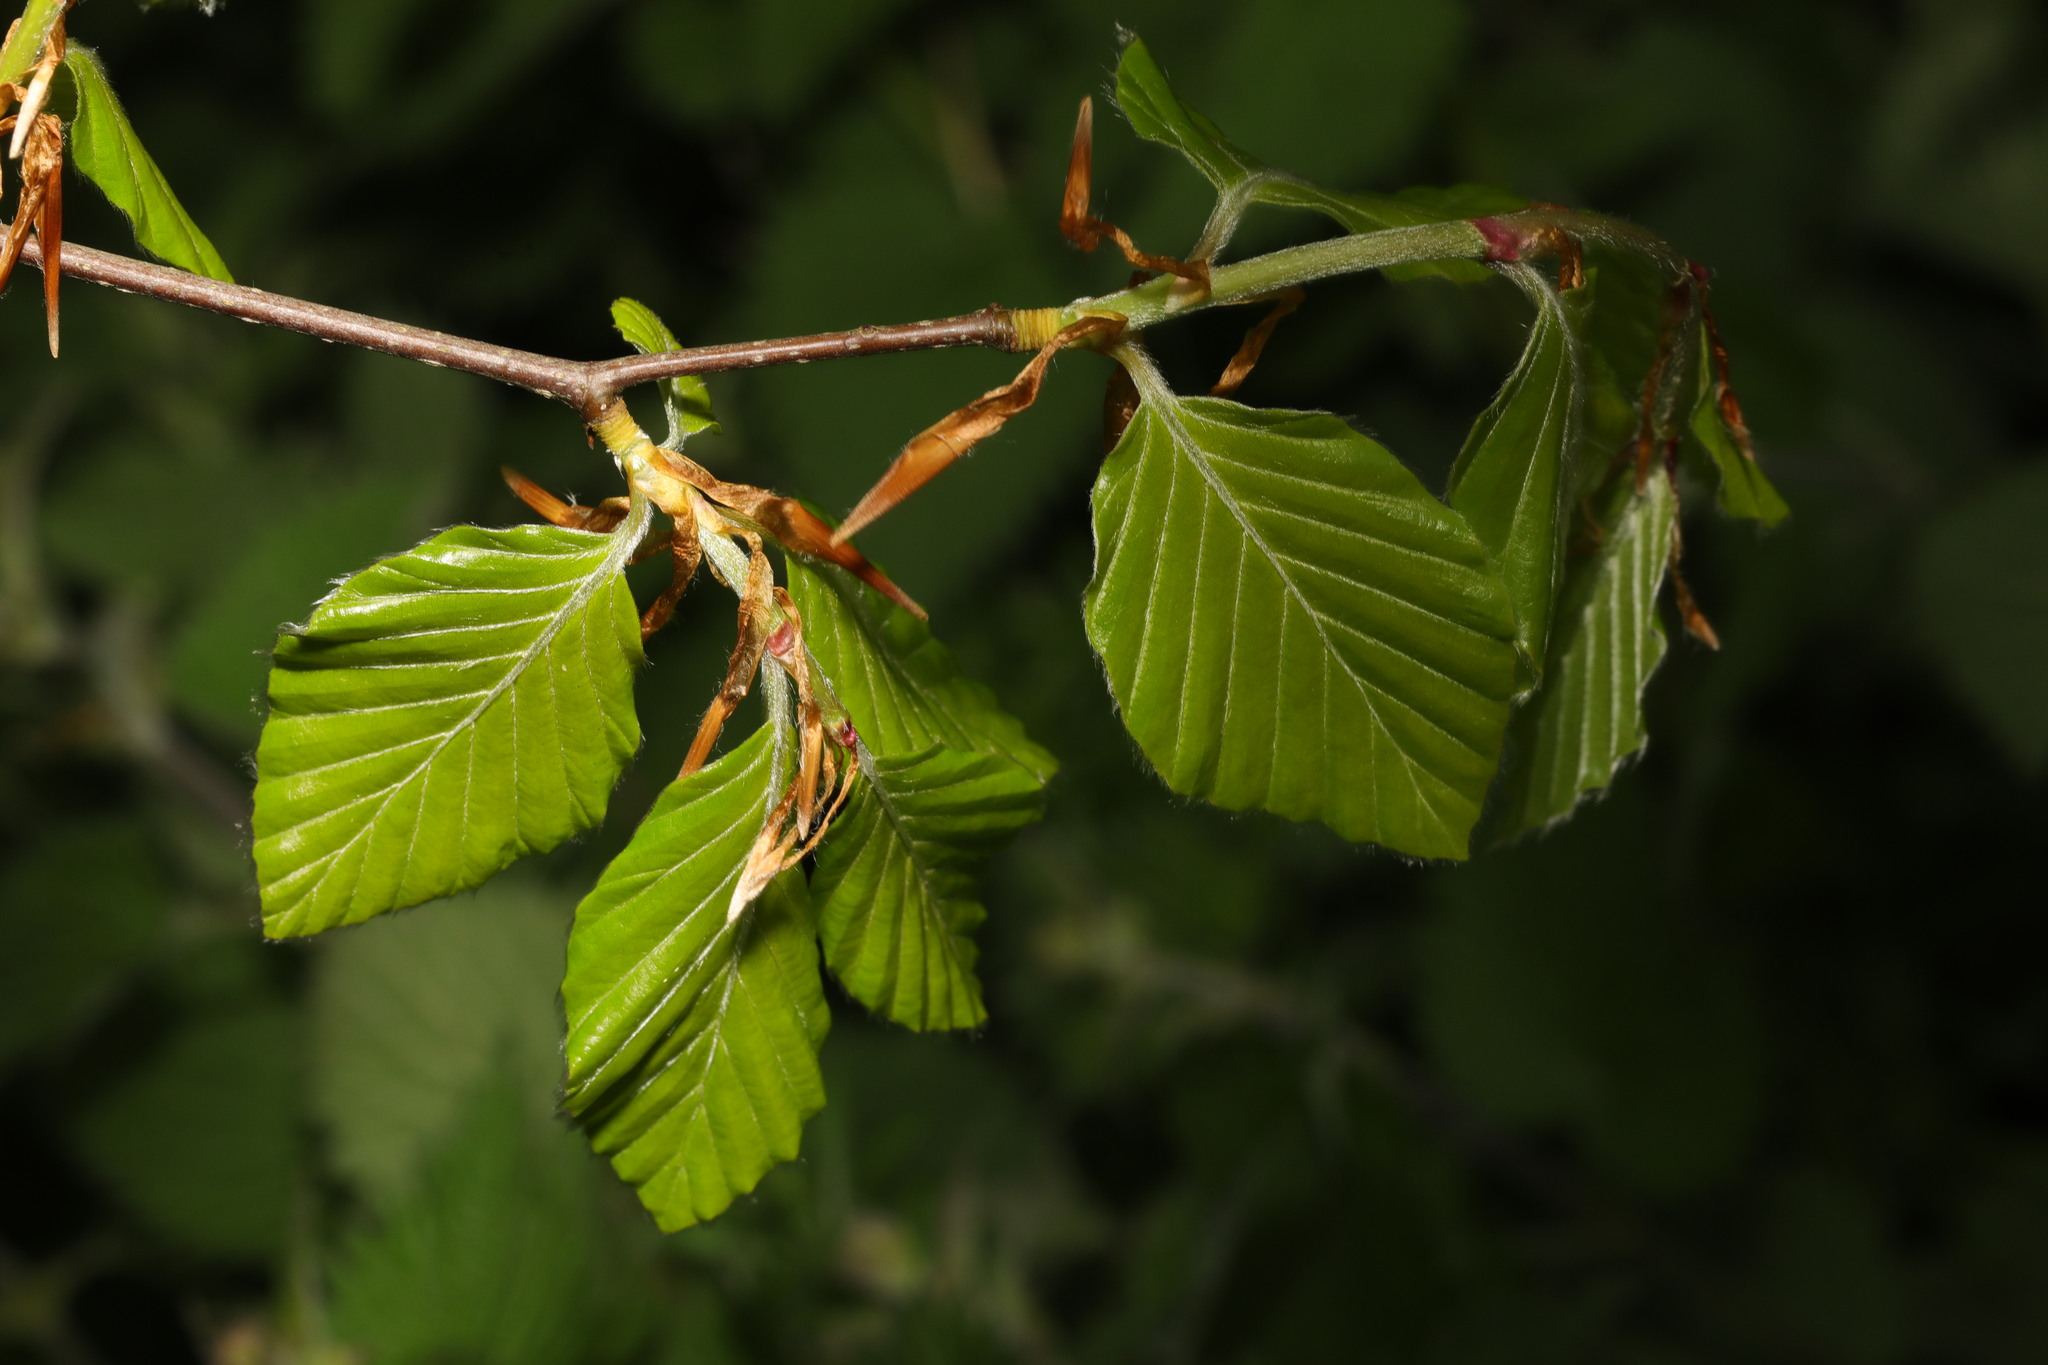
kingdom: Plantae
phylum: Tracheophyta
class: Magnoliopsida
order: Fagales
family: Fagaceae
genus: Fagus
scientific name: Fagus sylvatica
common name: Beech
